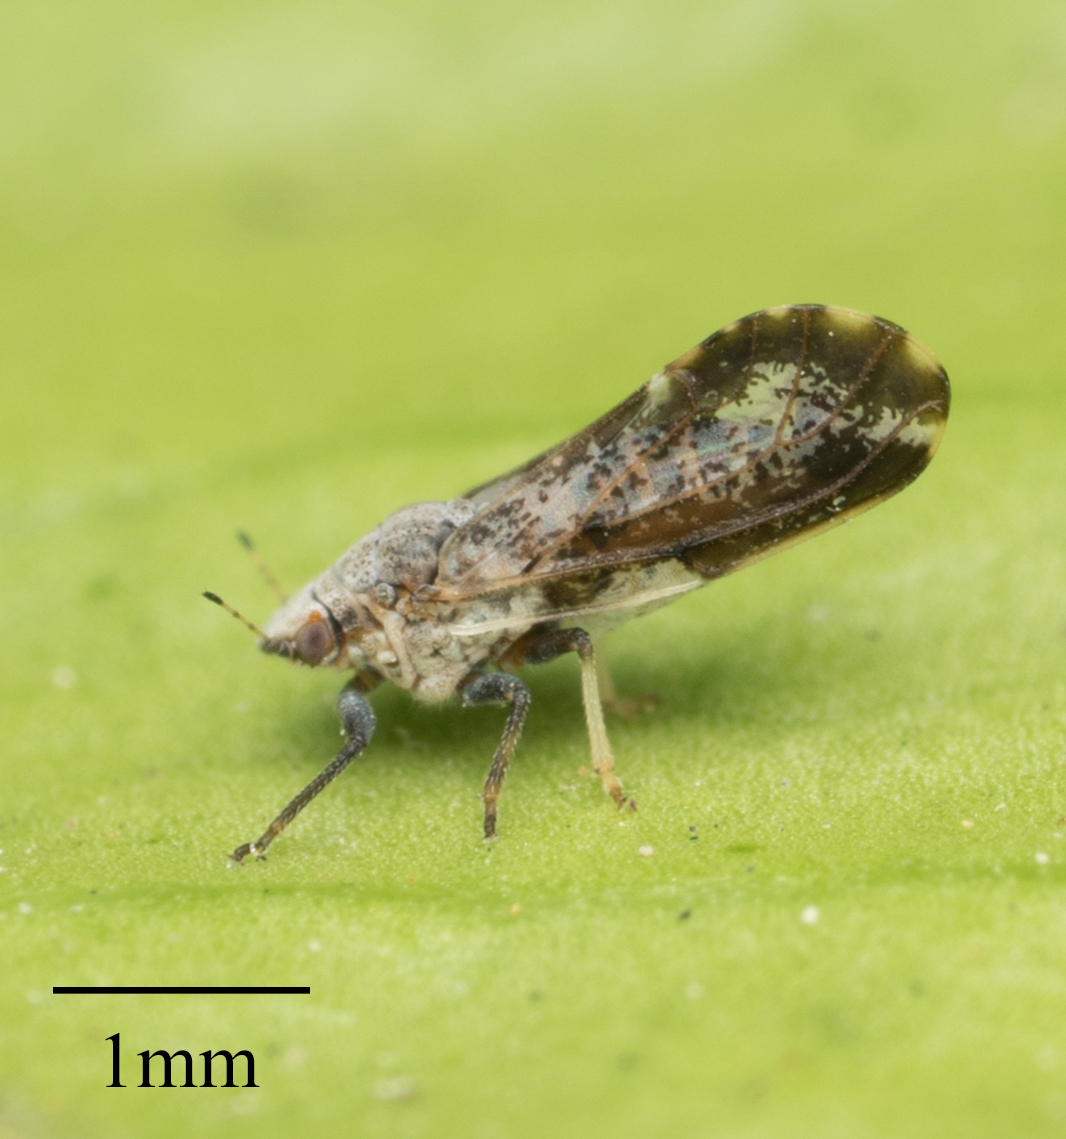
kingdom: Animalia
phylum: Arthropoda
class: Insecta
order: Hemiptera
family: Liviidae
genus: Diaphorina
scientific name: Diaphorina citri
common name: Asian citrus psyllid
